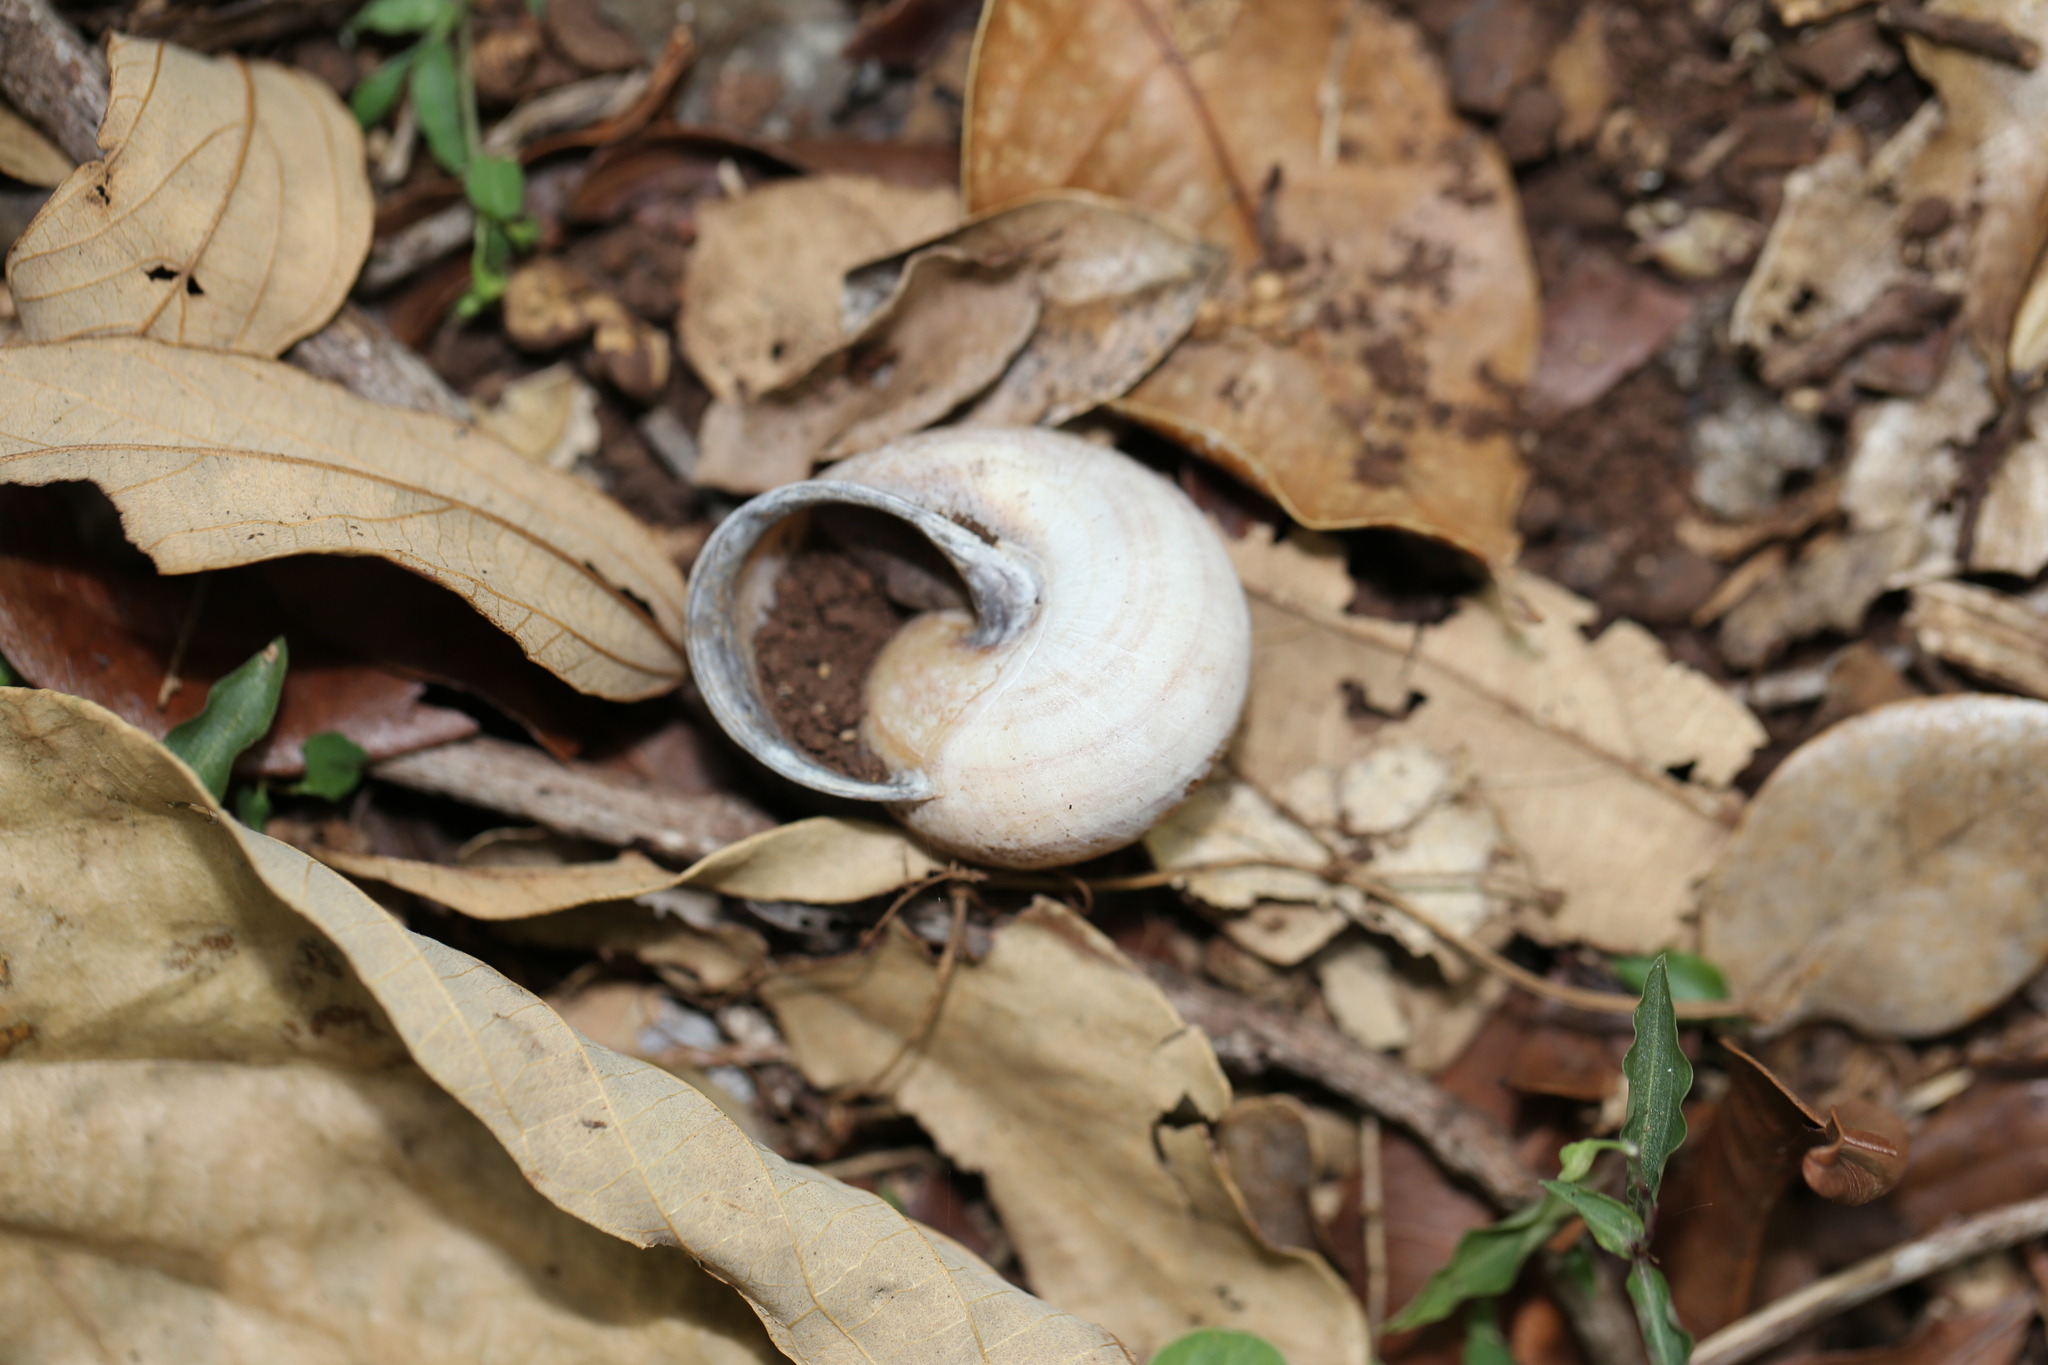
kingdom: Animalia
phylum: Mollusca
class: Gastropoda
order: Stylommatophora
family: Camaenidae
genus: Sphaerospira
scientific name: Sphaerospira fraseri
